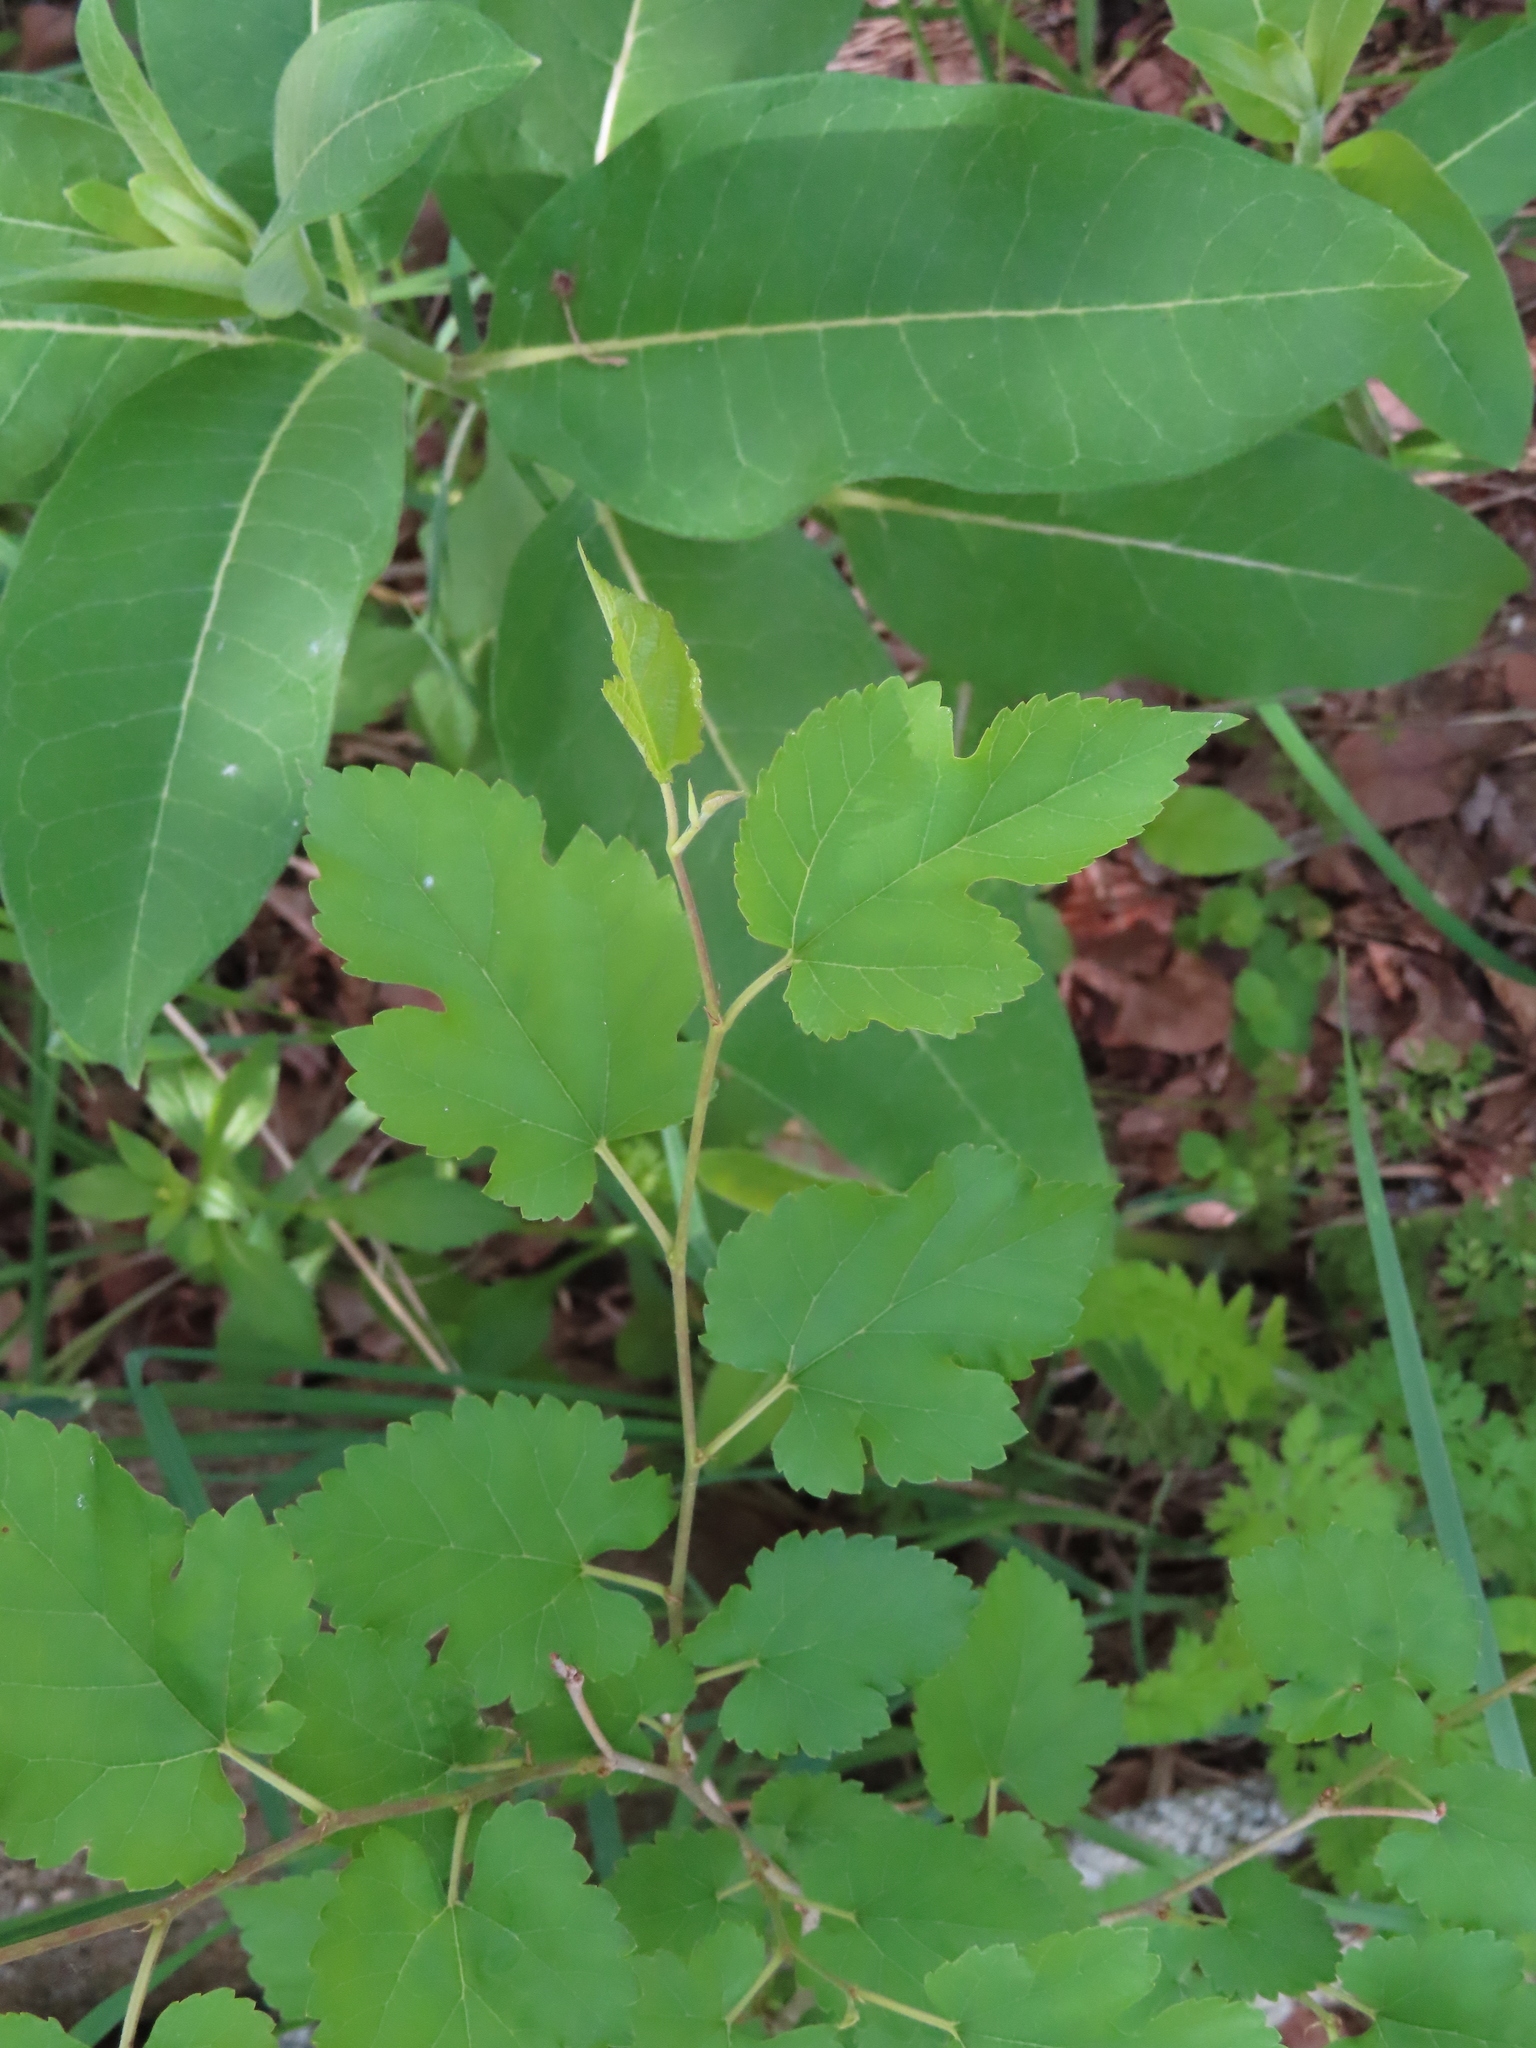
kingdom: Plantae
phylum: Tracheophyta
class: Magnoliopsida
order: Rosales
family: Moraceae
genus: Morus
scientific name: Morus alba
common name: White mulberry
